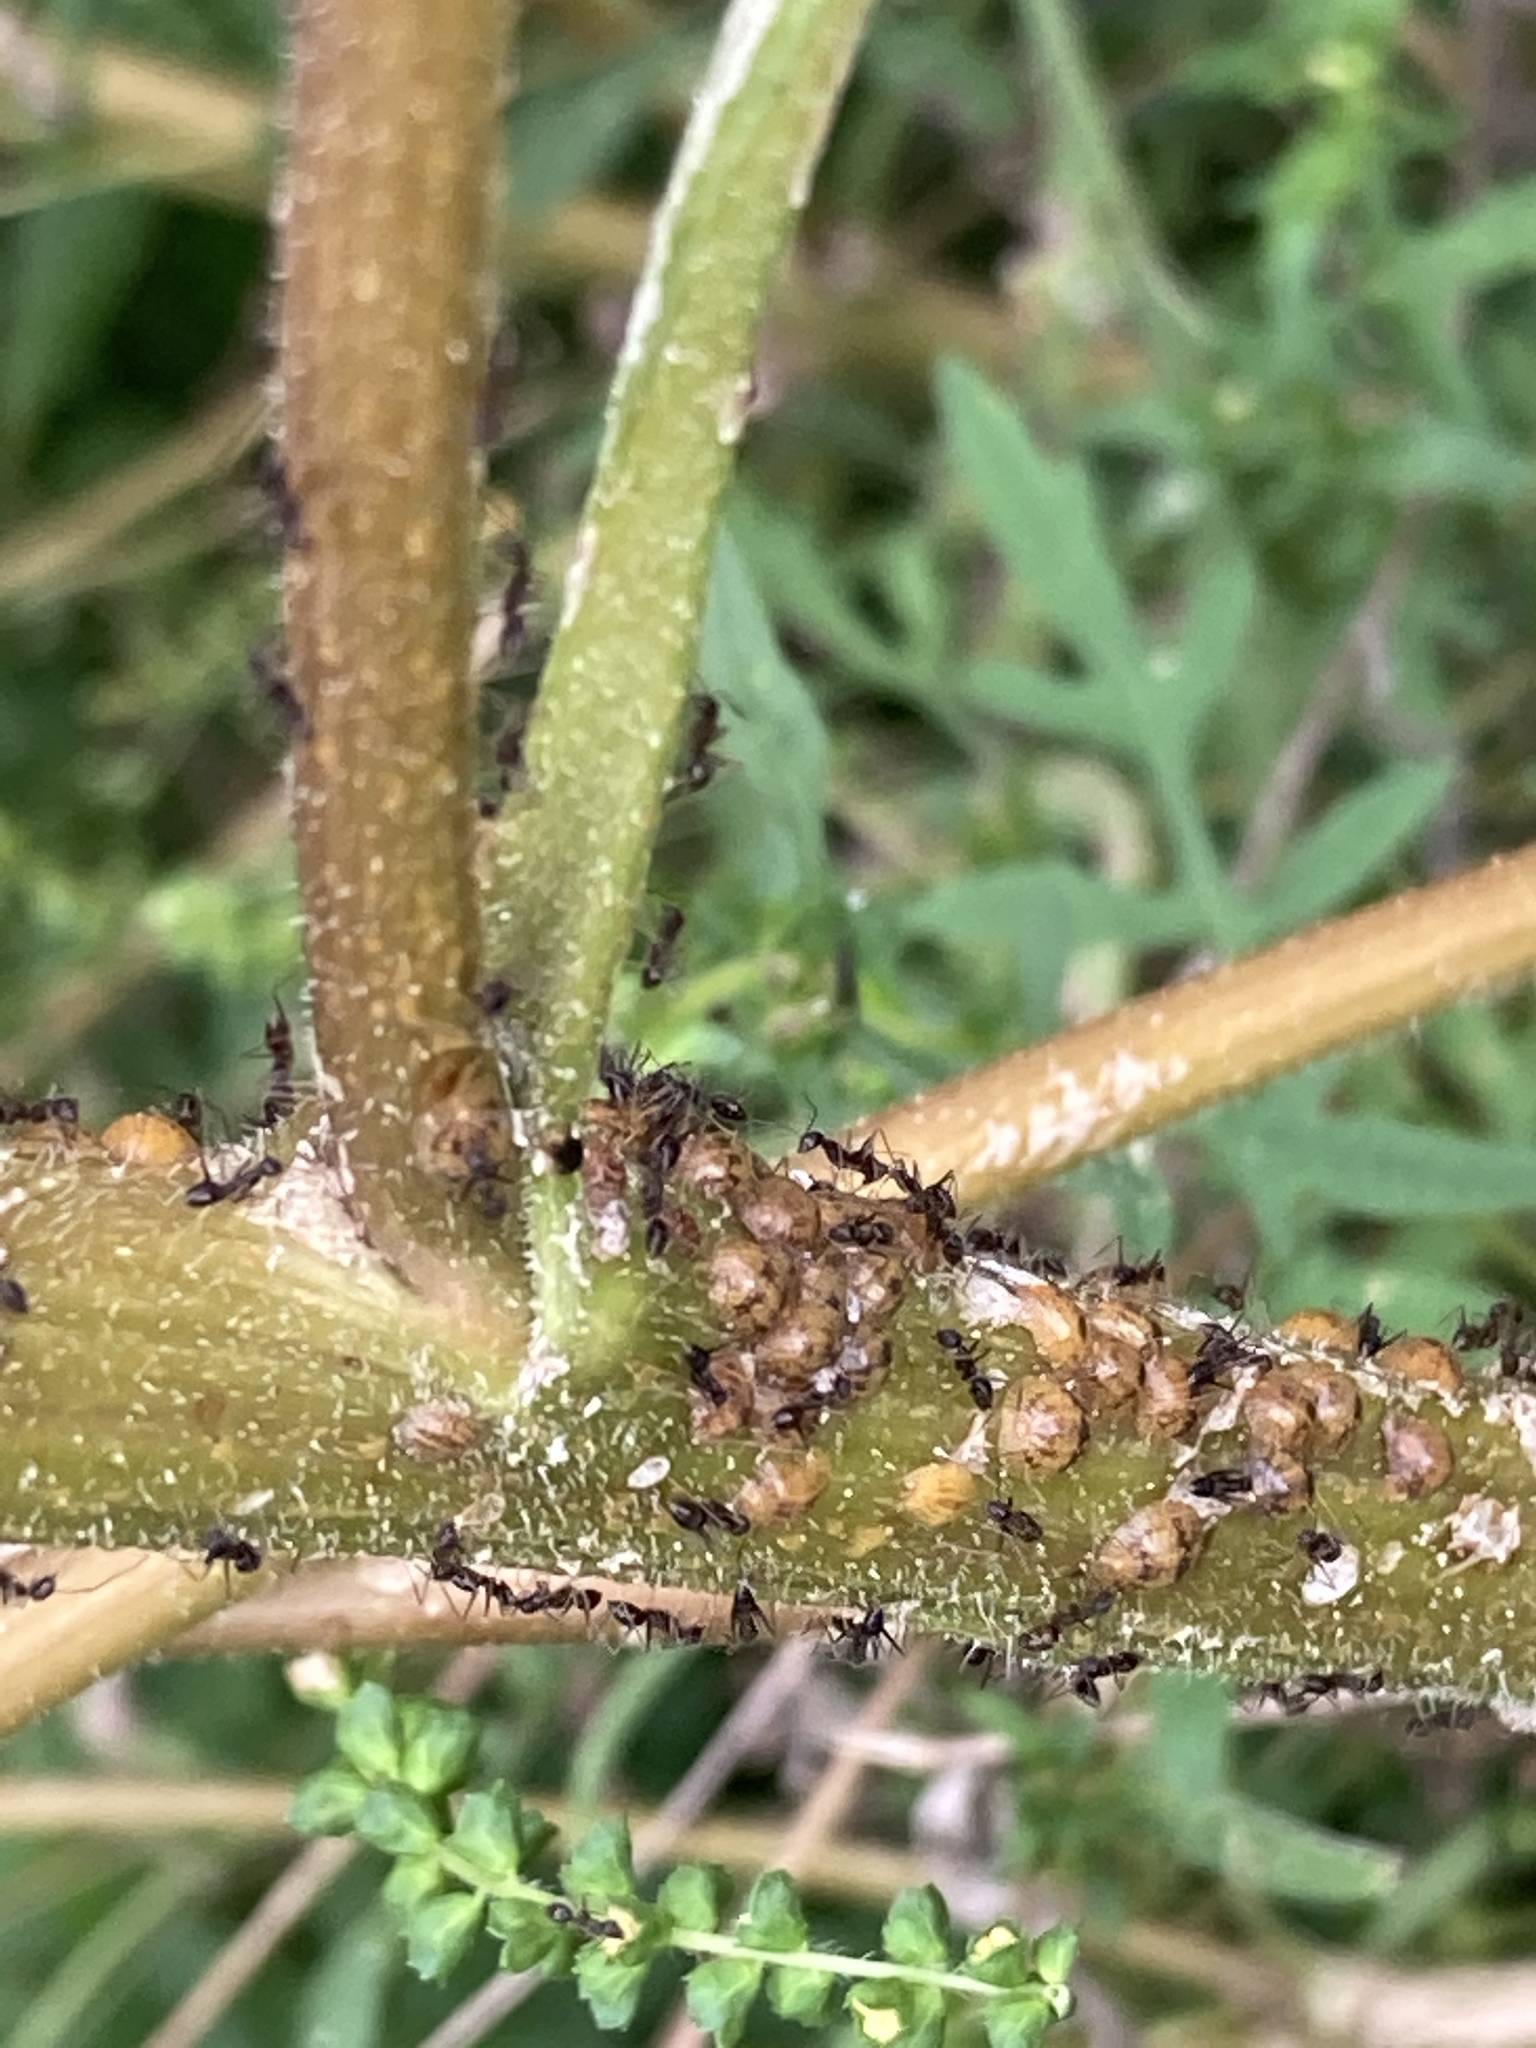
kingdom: Animalia
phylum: Arthropoda
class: Insecta
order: Hymenoptera
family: Formicidae
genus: Paratrechina
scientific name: Paratrechina longicornis
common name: Longhorned crazy ant
